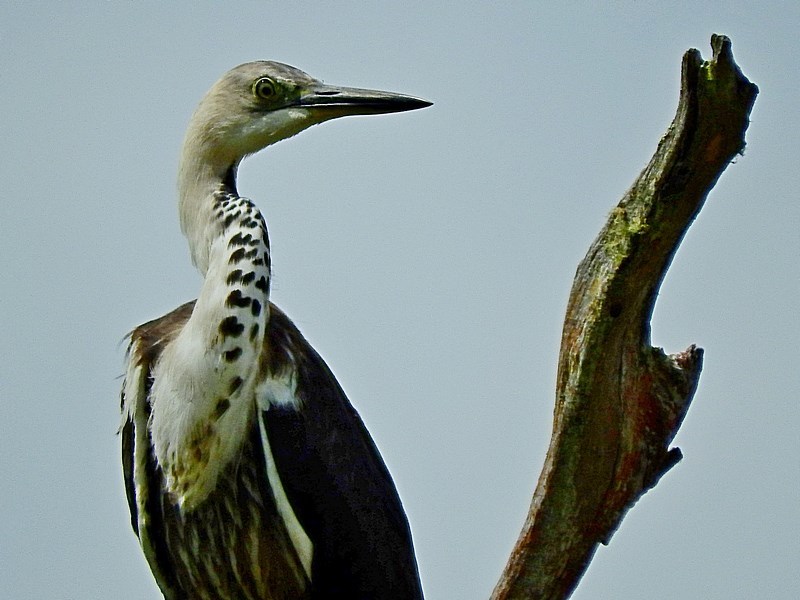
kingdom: Animalia
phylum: Chordata
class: Aves
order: Pelecaniformes
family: Ardeidae
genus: Ardea
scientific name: Ardea pacifica
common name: White-necked heron
